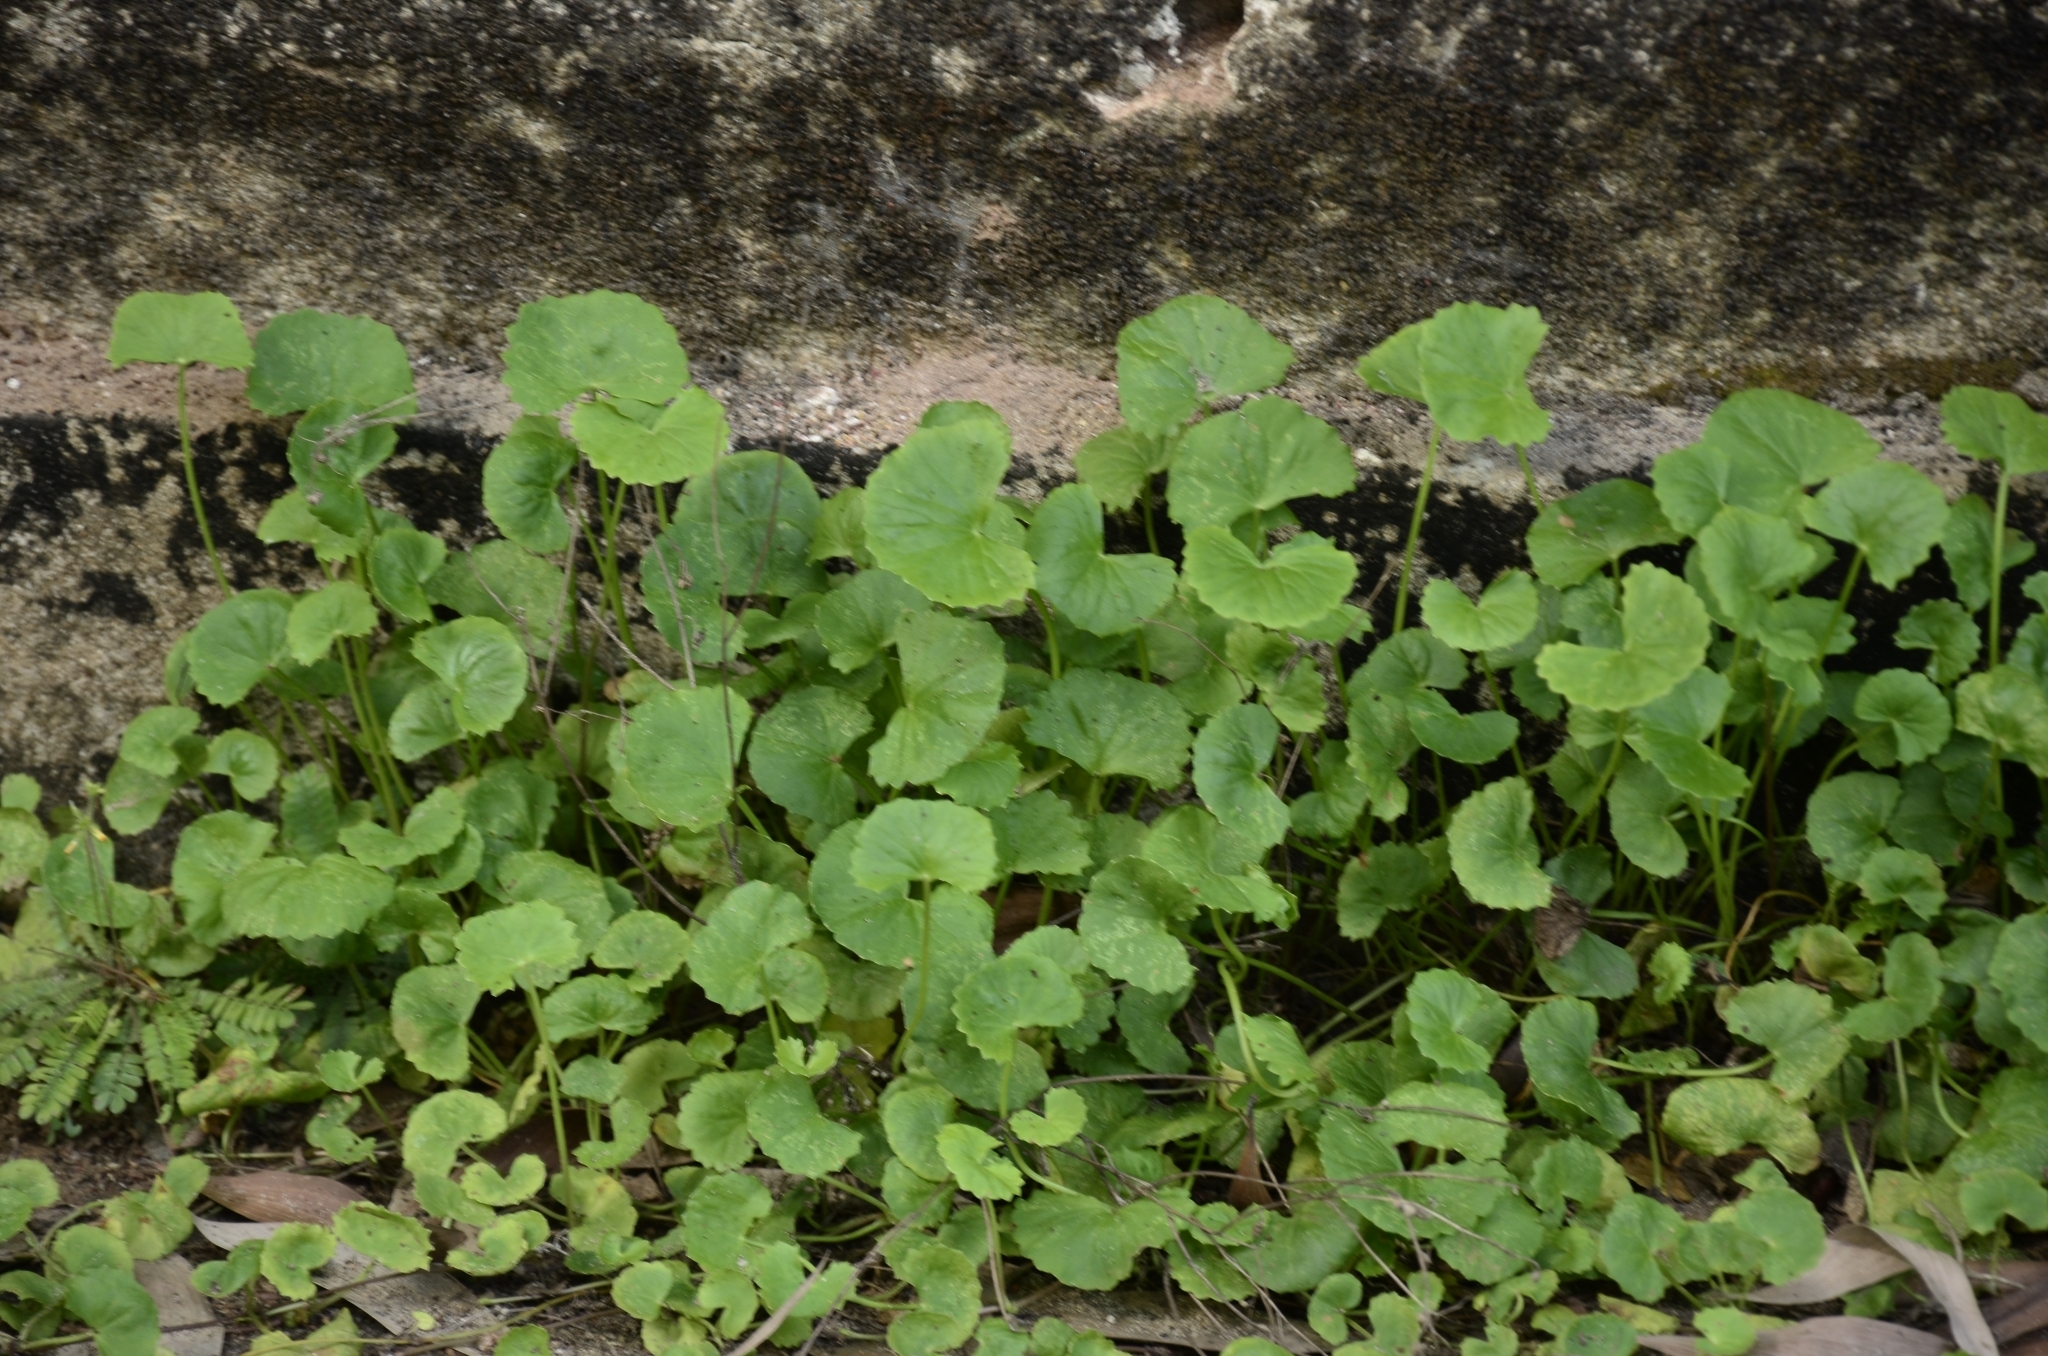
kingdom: Plantae
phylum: Tracheophyta
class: Magnoliopsida
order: Apiales
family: Apiaceae
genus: Centella
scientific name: Centella asiatica
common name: Spadeleaf
